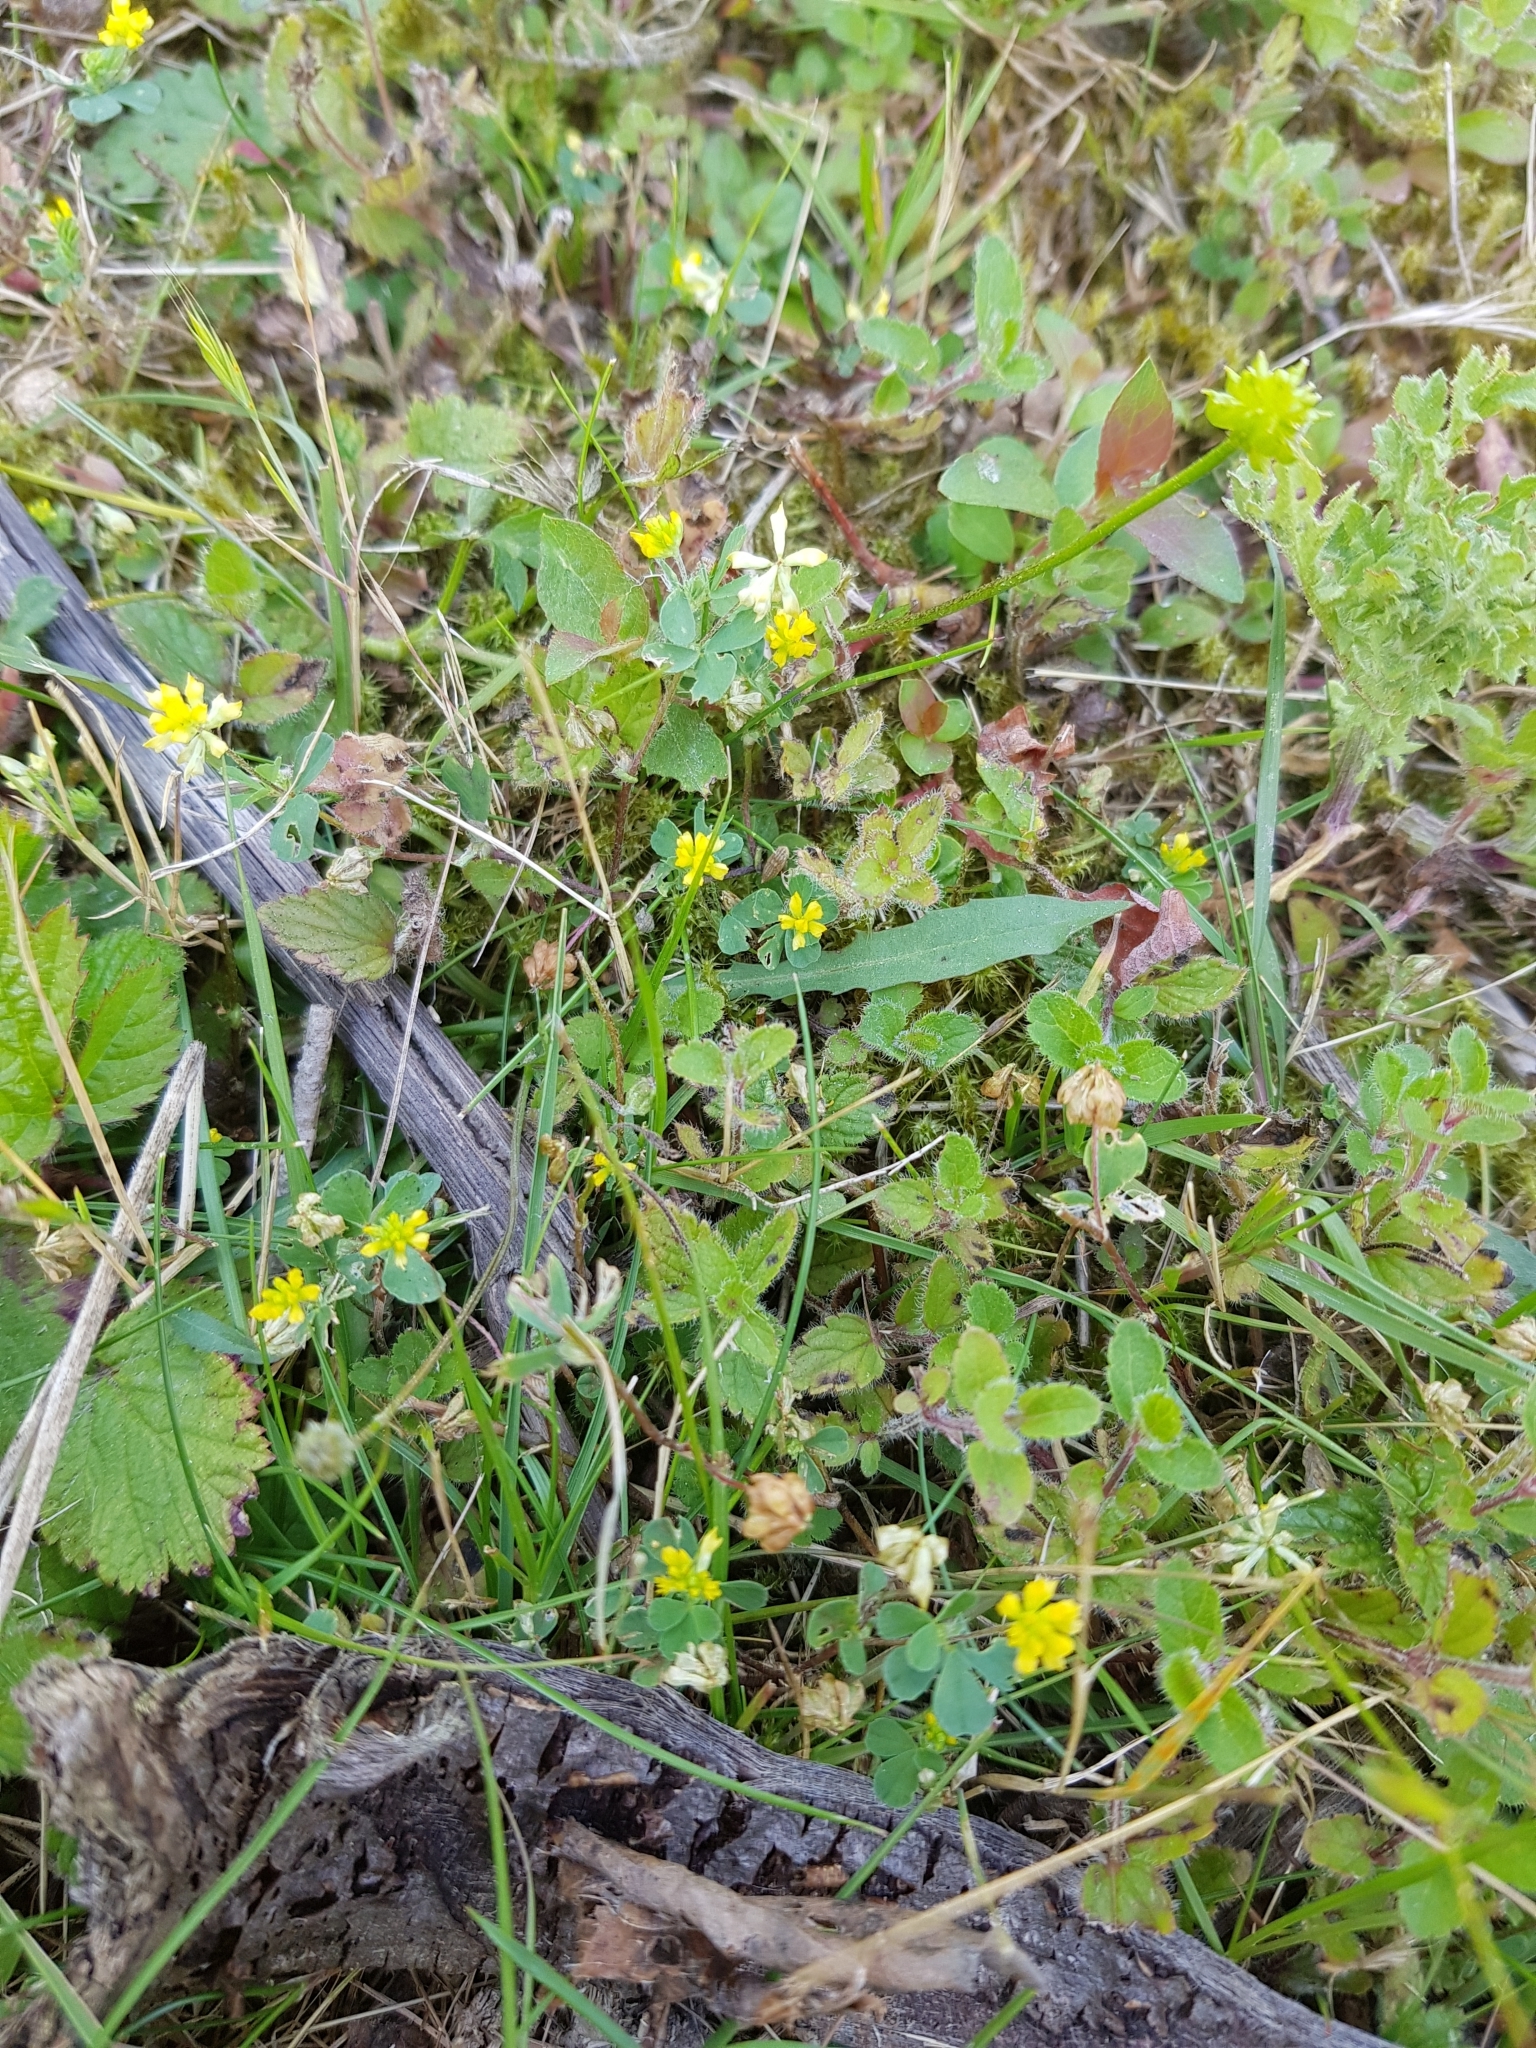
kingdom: Plantae
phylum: Tracheophyta
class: Magnoliopsida
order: Fabales
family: Fabaceae
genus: Trifolium
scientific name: Trifolium dubium
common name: Suckling clover
